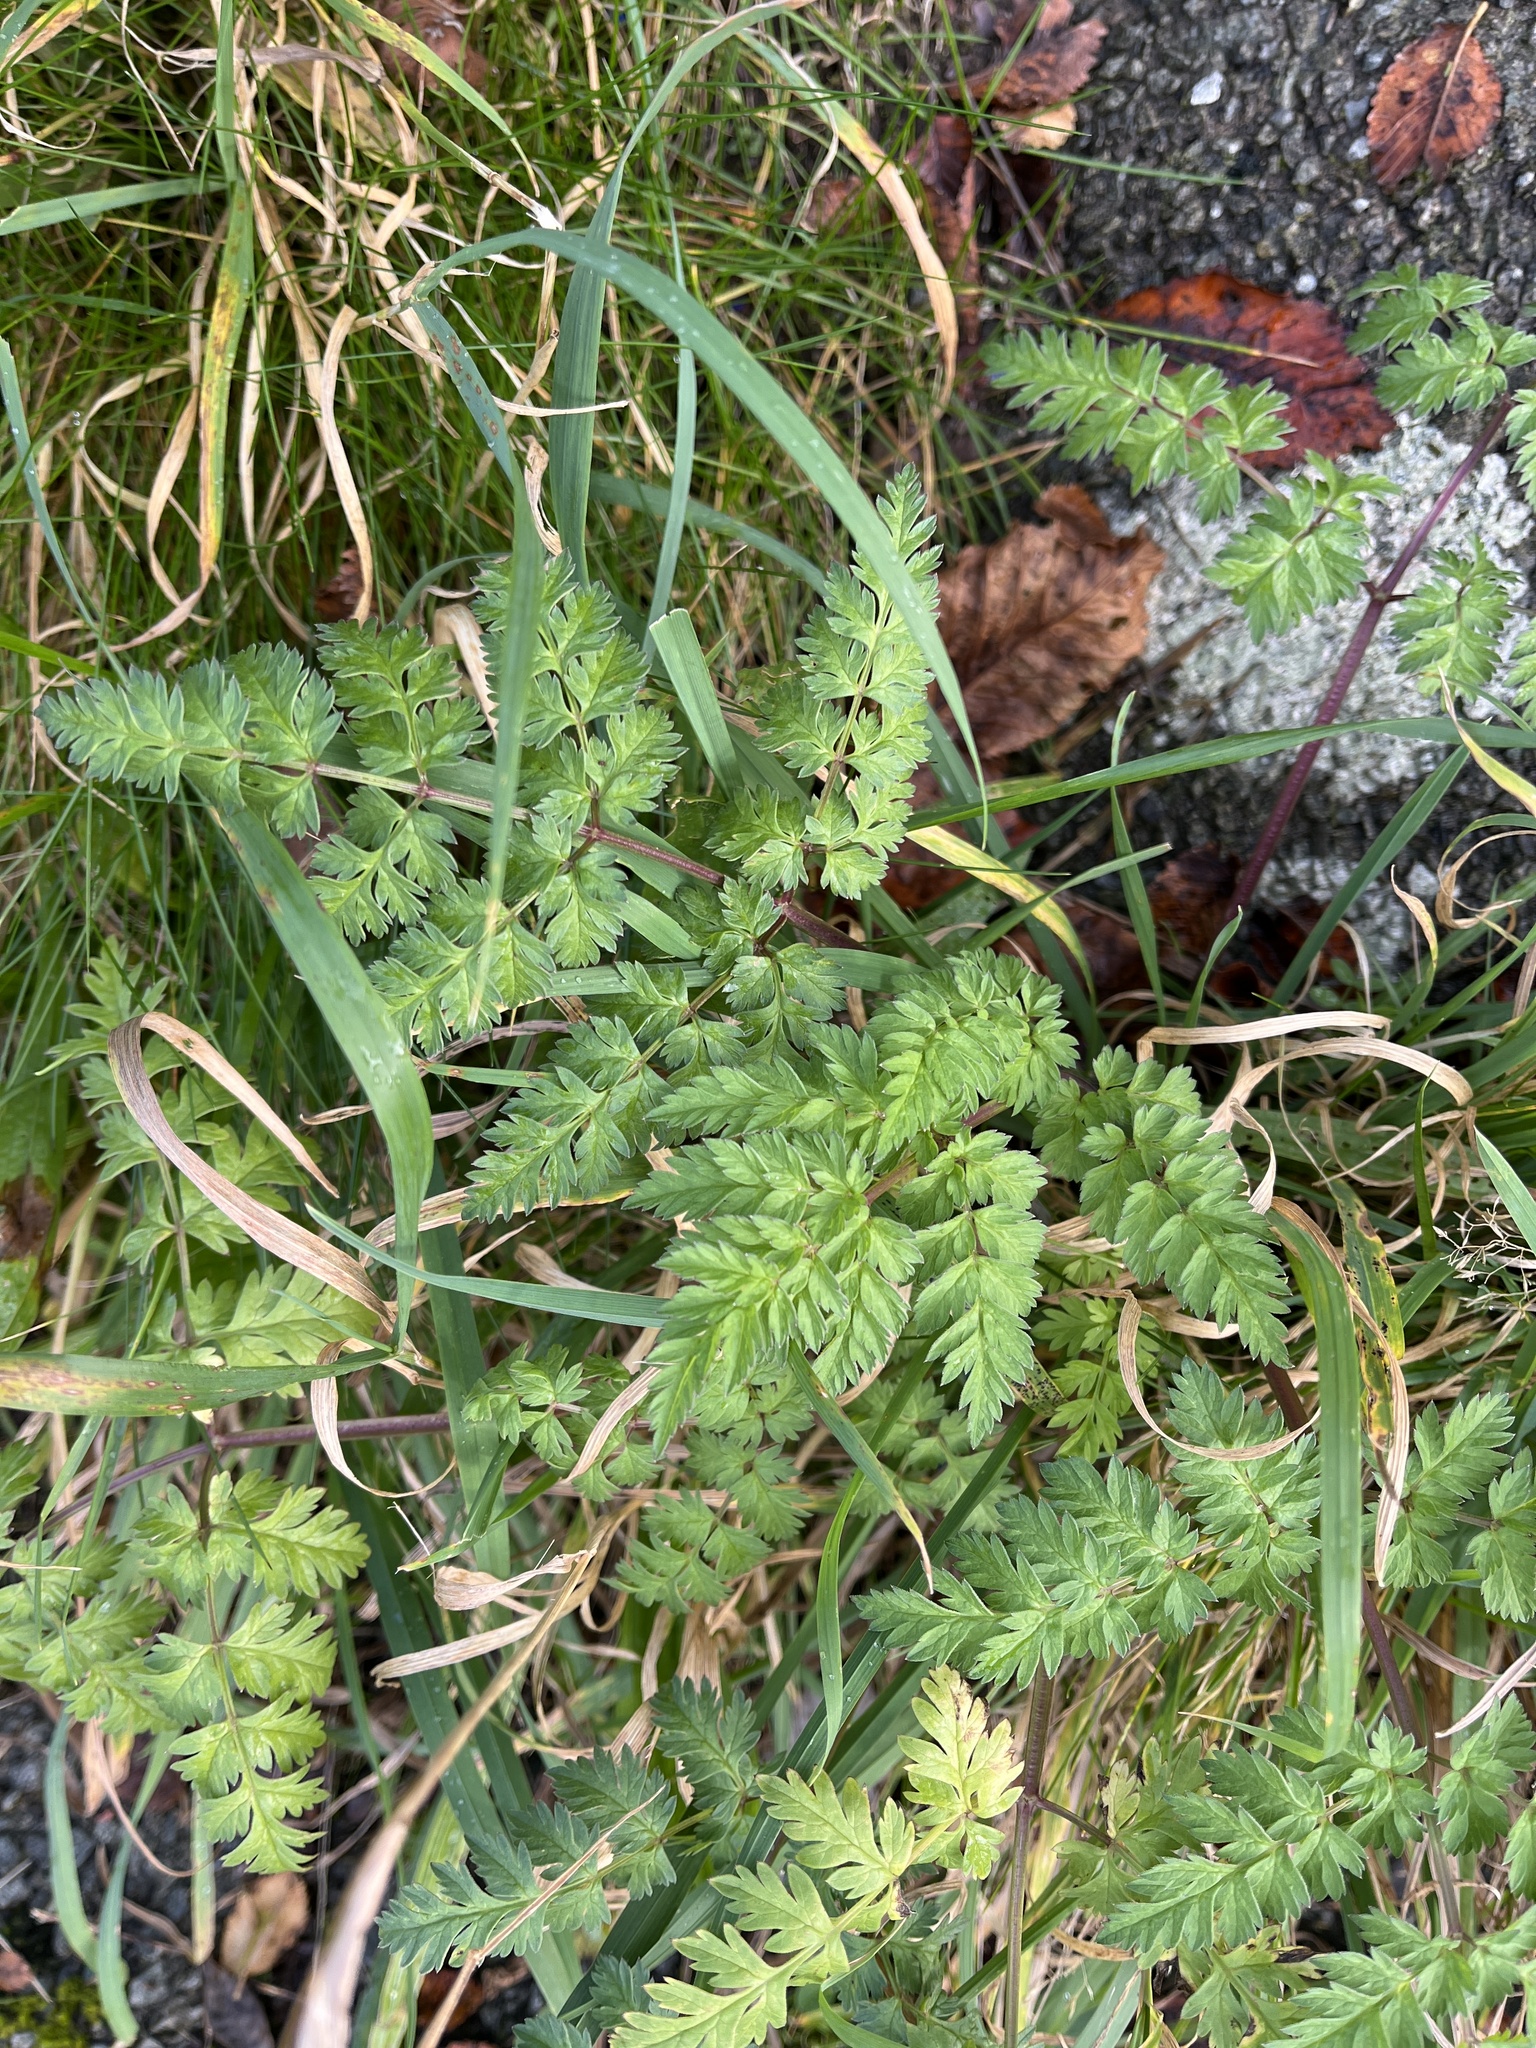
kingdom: Plantae
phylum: Tracheophyta
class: Magnoliopsida
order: Apiales
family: Apiaceae
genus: Anthriscus
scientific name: Anthriscus sylvestris
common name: Cow parsley
